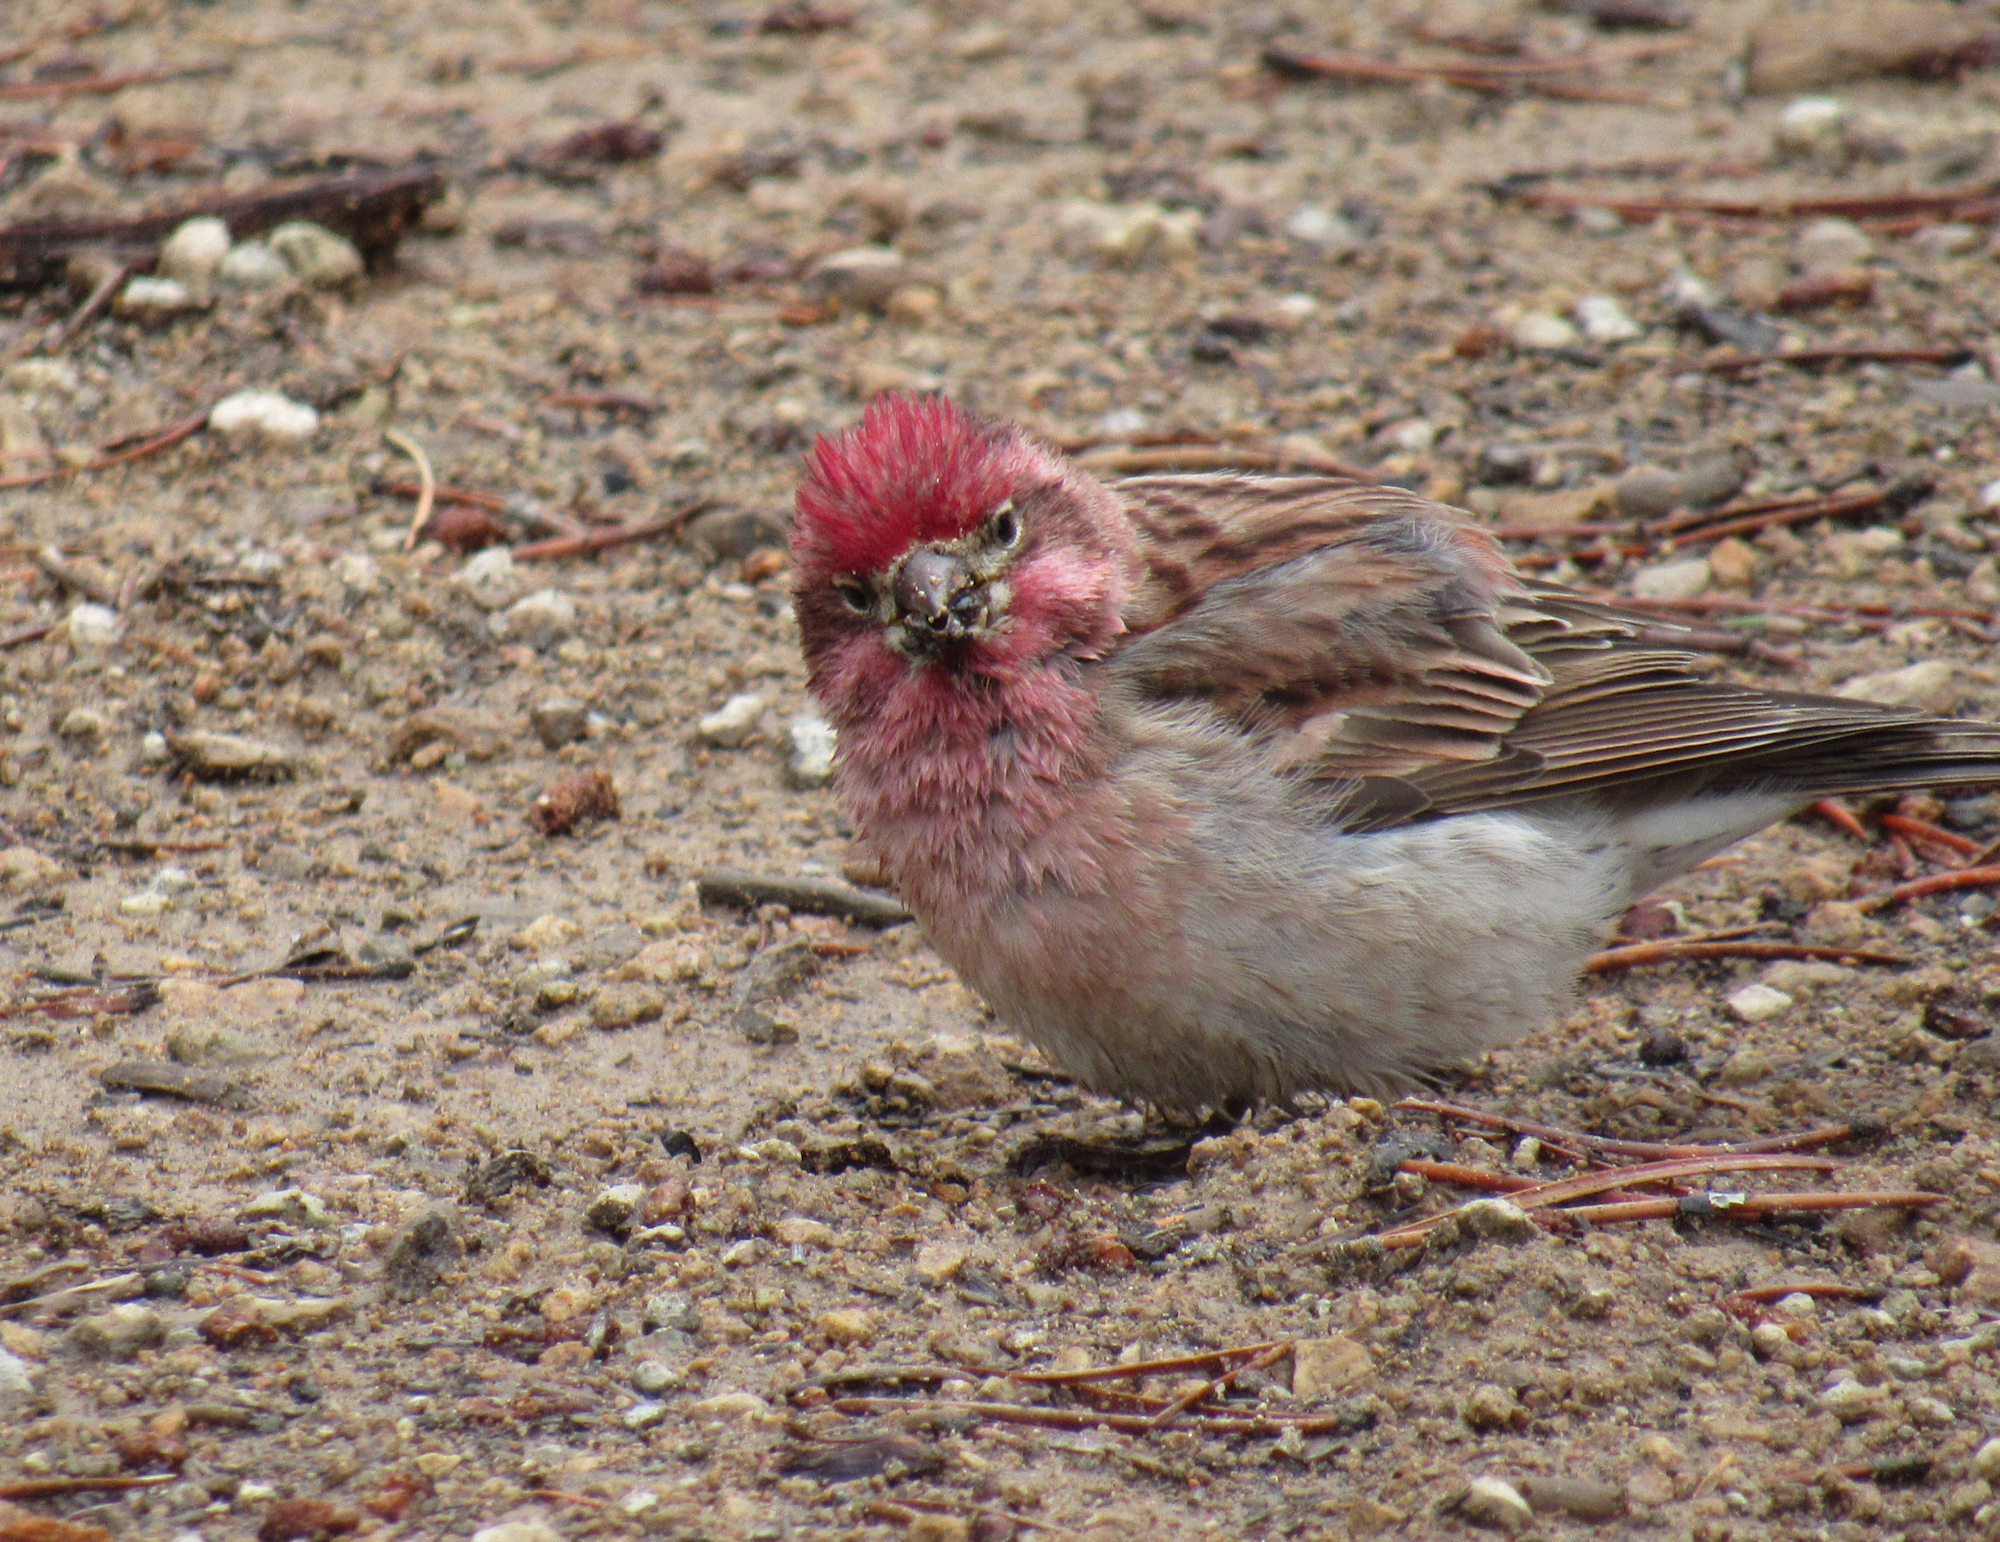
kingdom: Animalia
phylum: Chordata
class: Aves
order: Passeriformes
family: Fringillidae
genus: Haemorhous
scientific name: Haemorhous cassinii
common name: Cassin's finch
